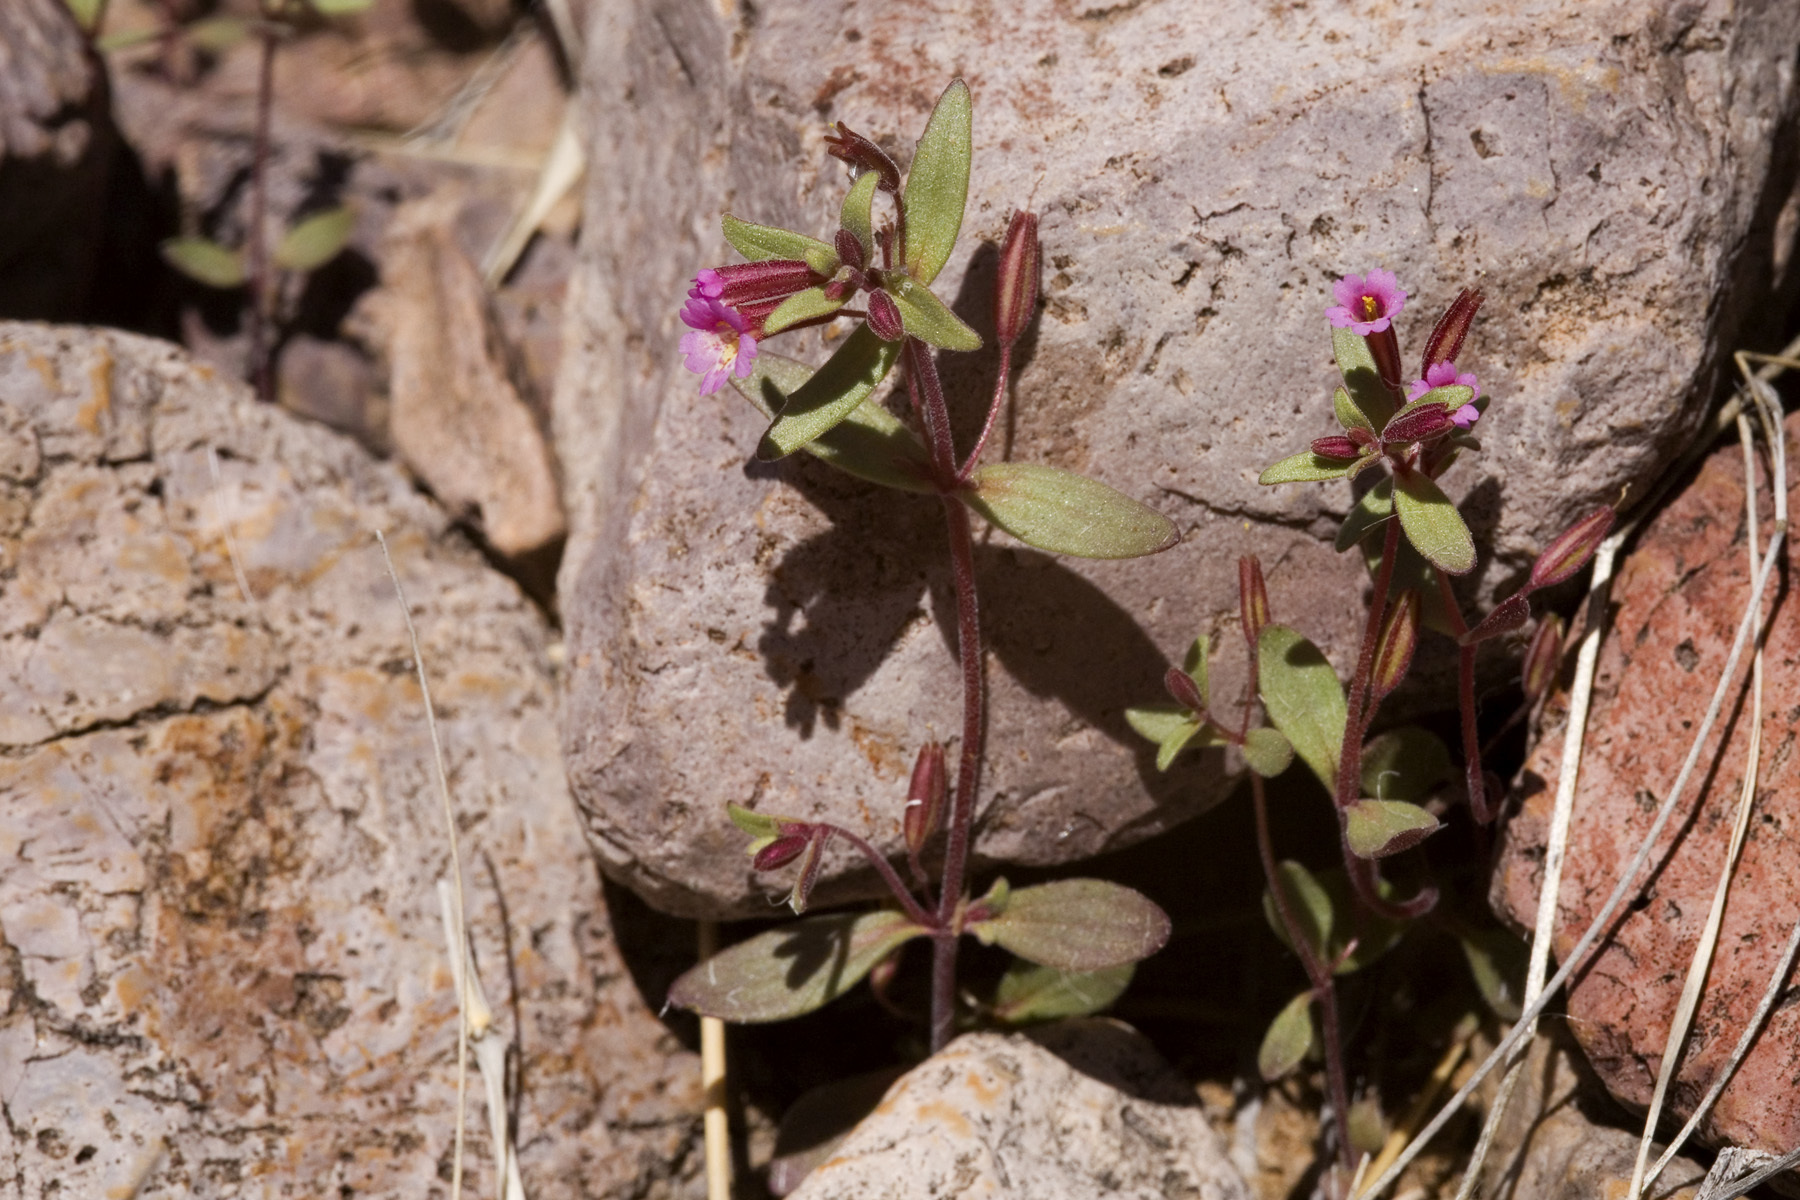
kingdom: Plantae
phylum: Tracheophyta
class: Magnoliopsida
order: Lamiales
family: Phrymaceae
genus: Erythranthe
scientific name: Erythranthe rubella
